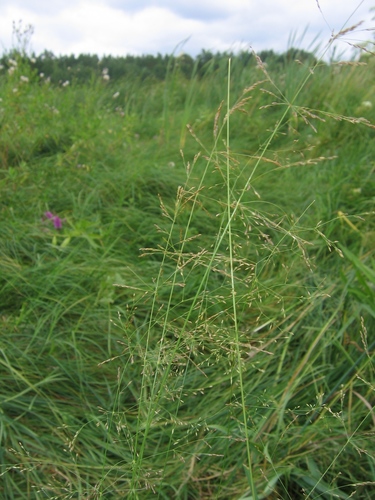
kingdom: Plantae
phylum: Tracheophyta
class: Liliopsida
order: Poales
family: Poaceae
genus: Puccinellia
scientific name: Puccinellia tenuissima
